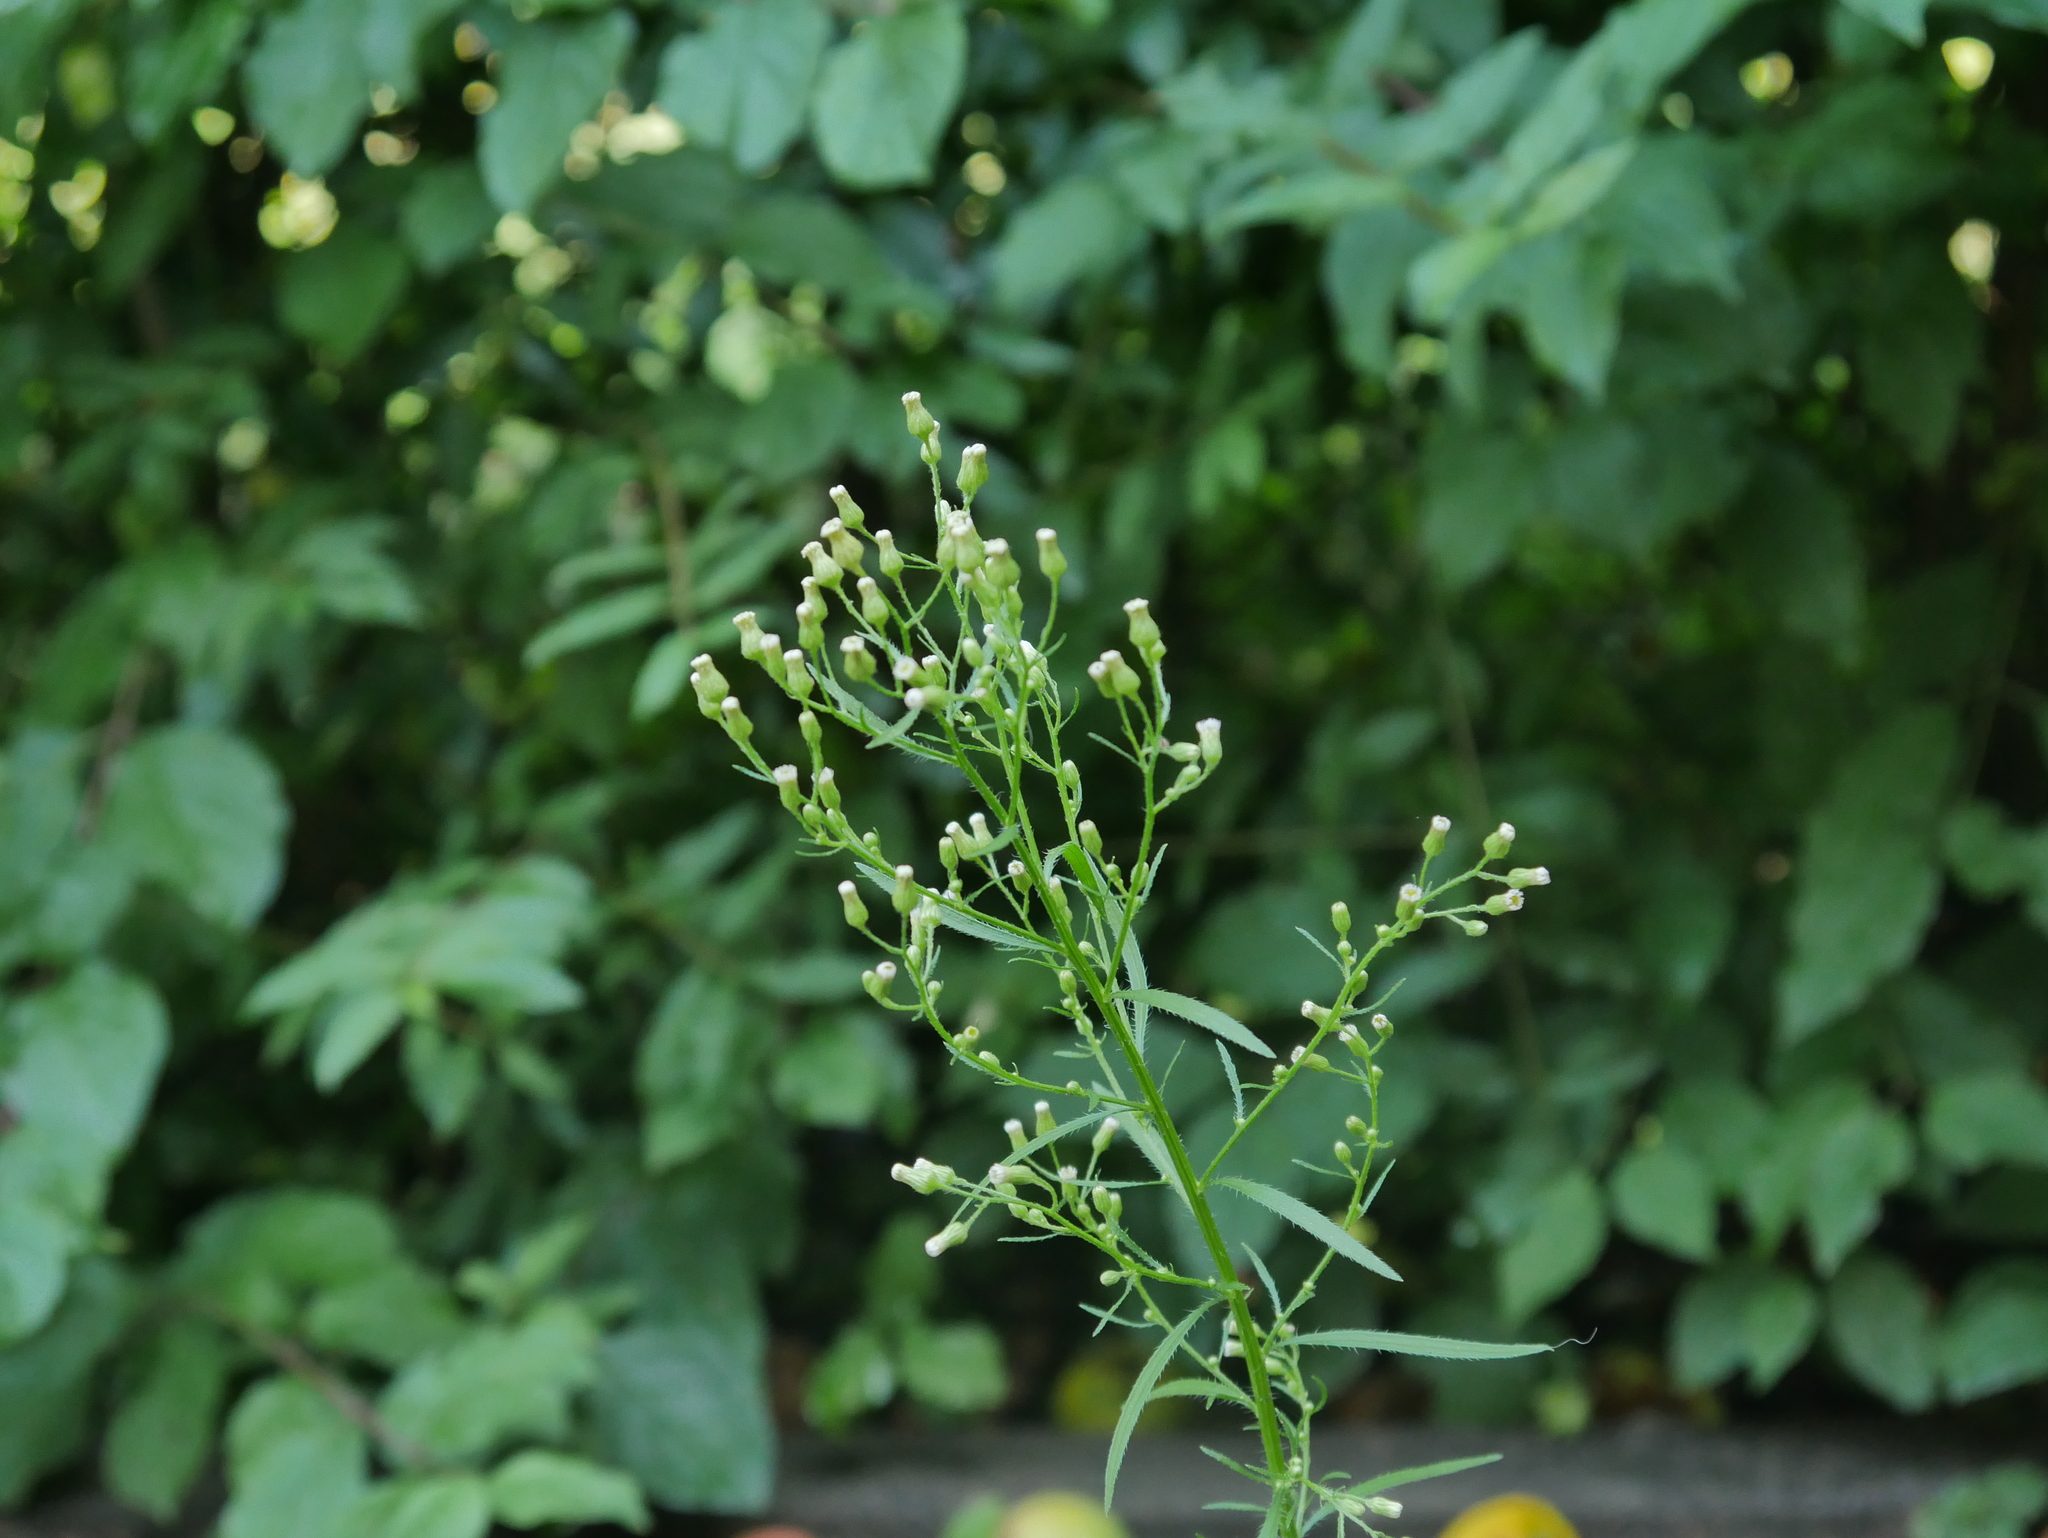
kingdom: Plantae
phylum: Tracheophyta
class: Magnoliopsida
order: Asterales
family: Asteraceae
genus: Erigeron
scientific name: Erigeron canadensis
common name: Canadian fleabane
